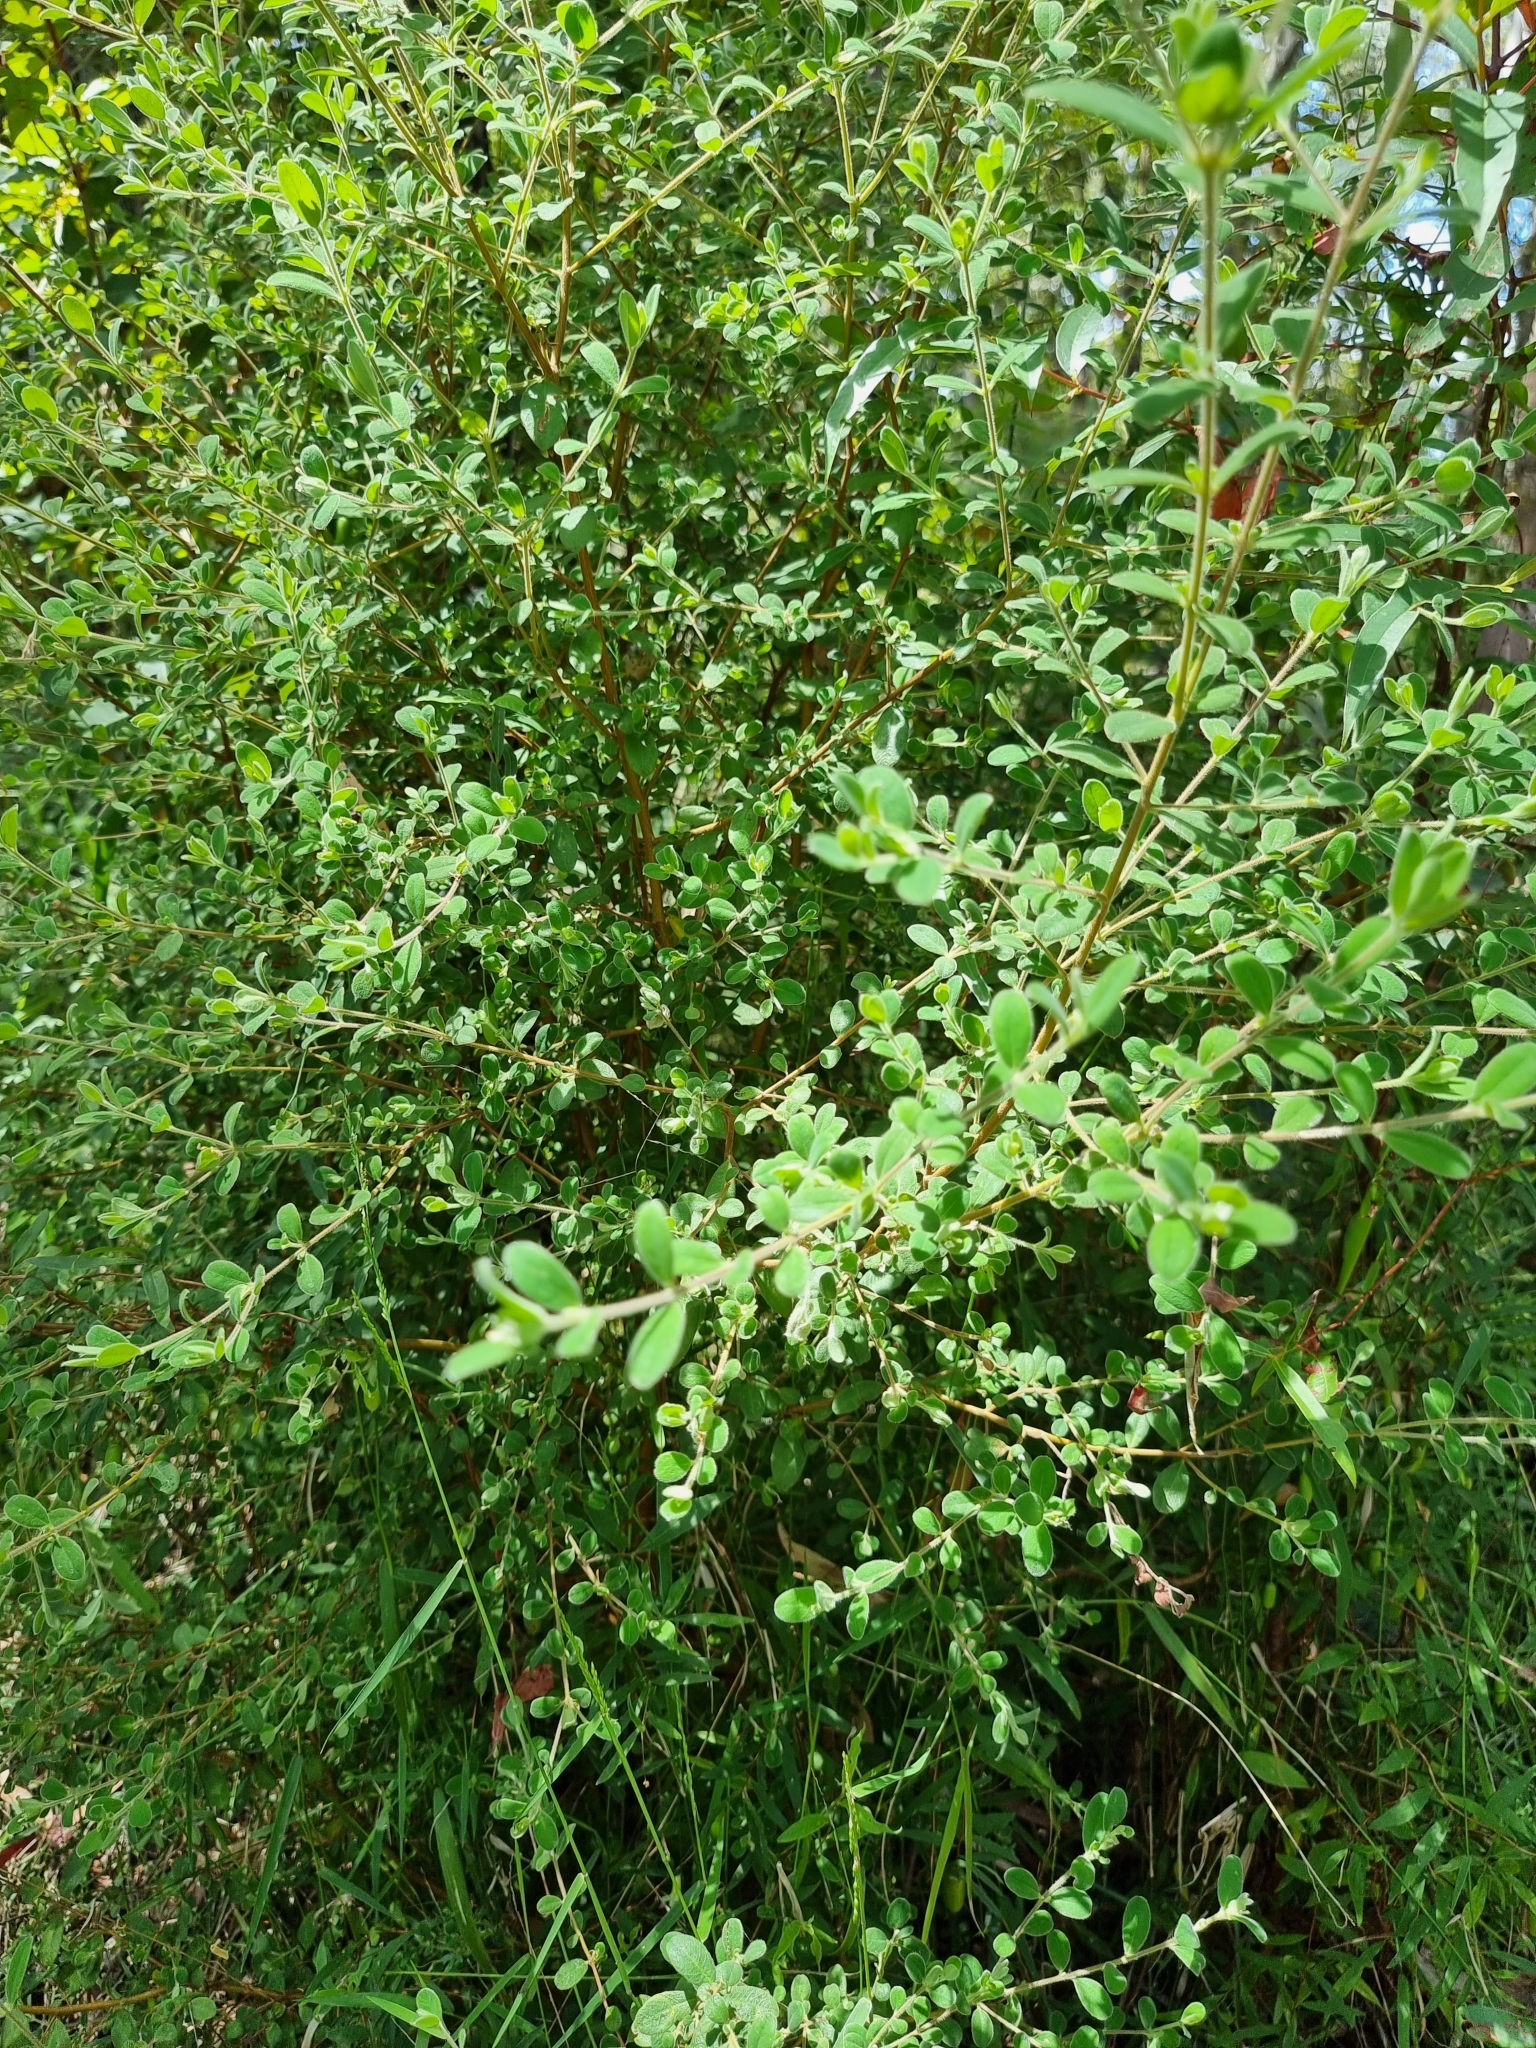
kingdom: Plantae
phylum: Tracheophyta
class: Magnoliopsida
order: Malvales
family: Thymelaeaceae
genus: Pimelea
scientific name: Pimelea altior
